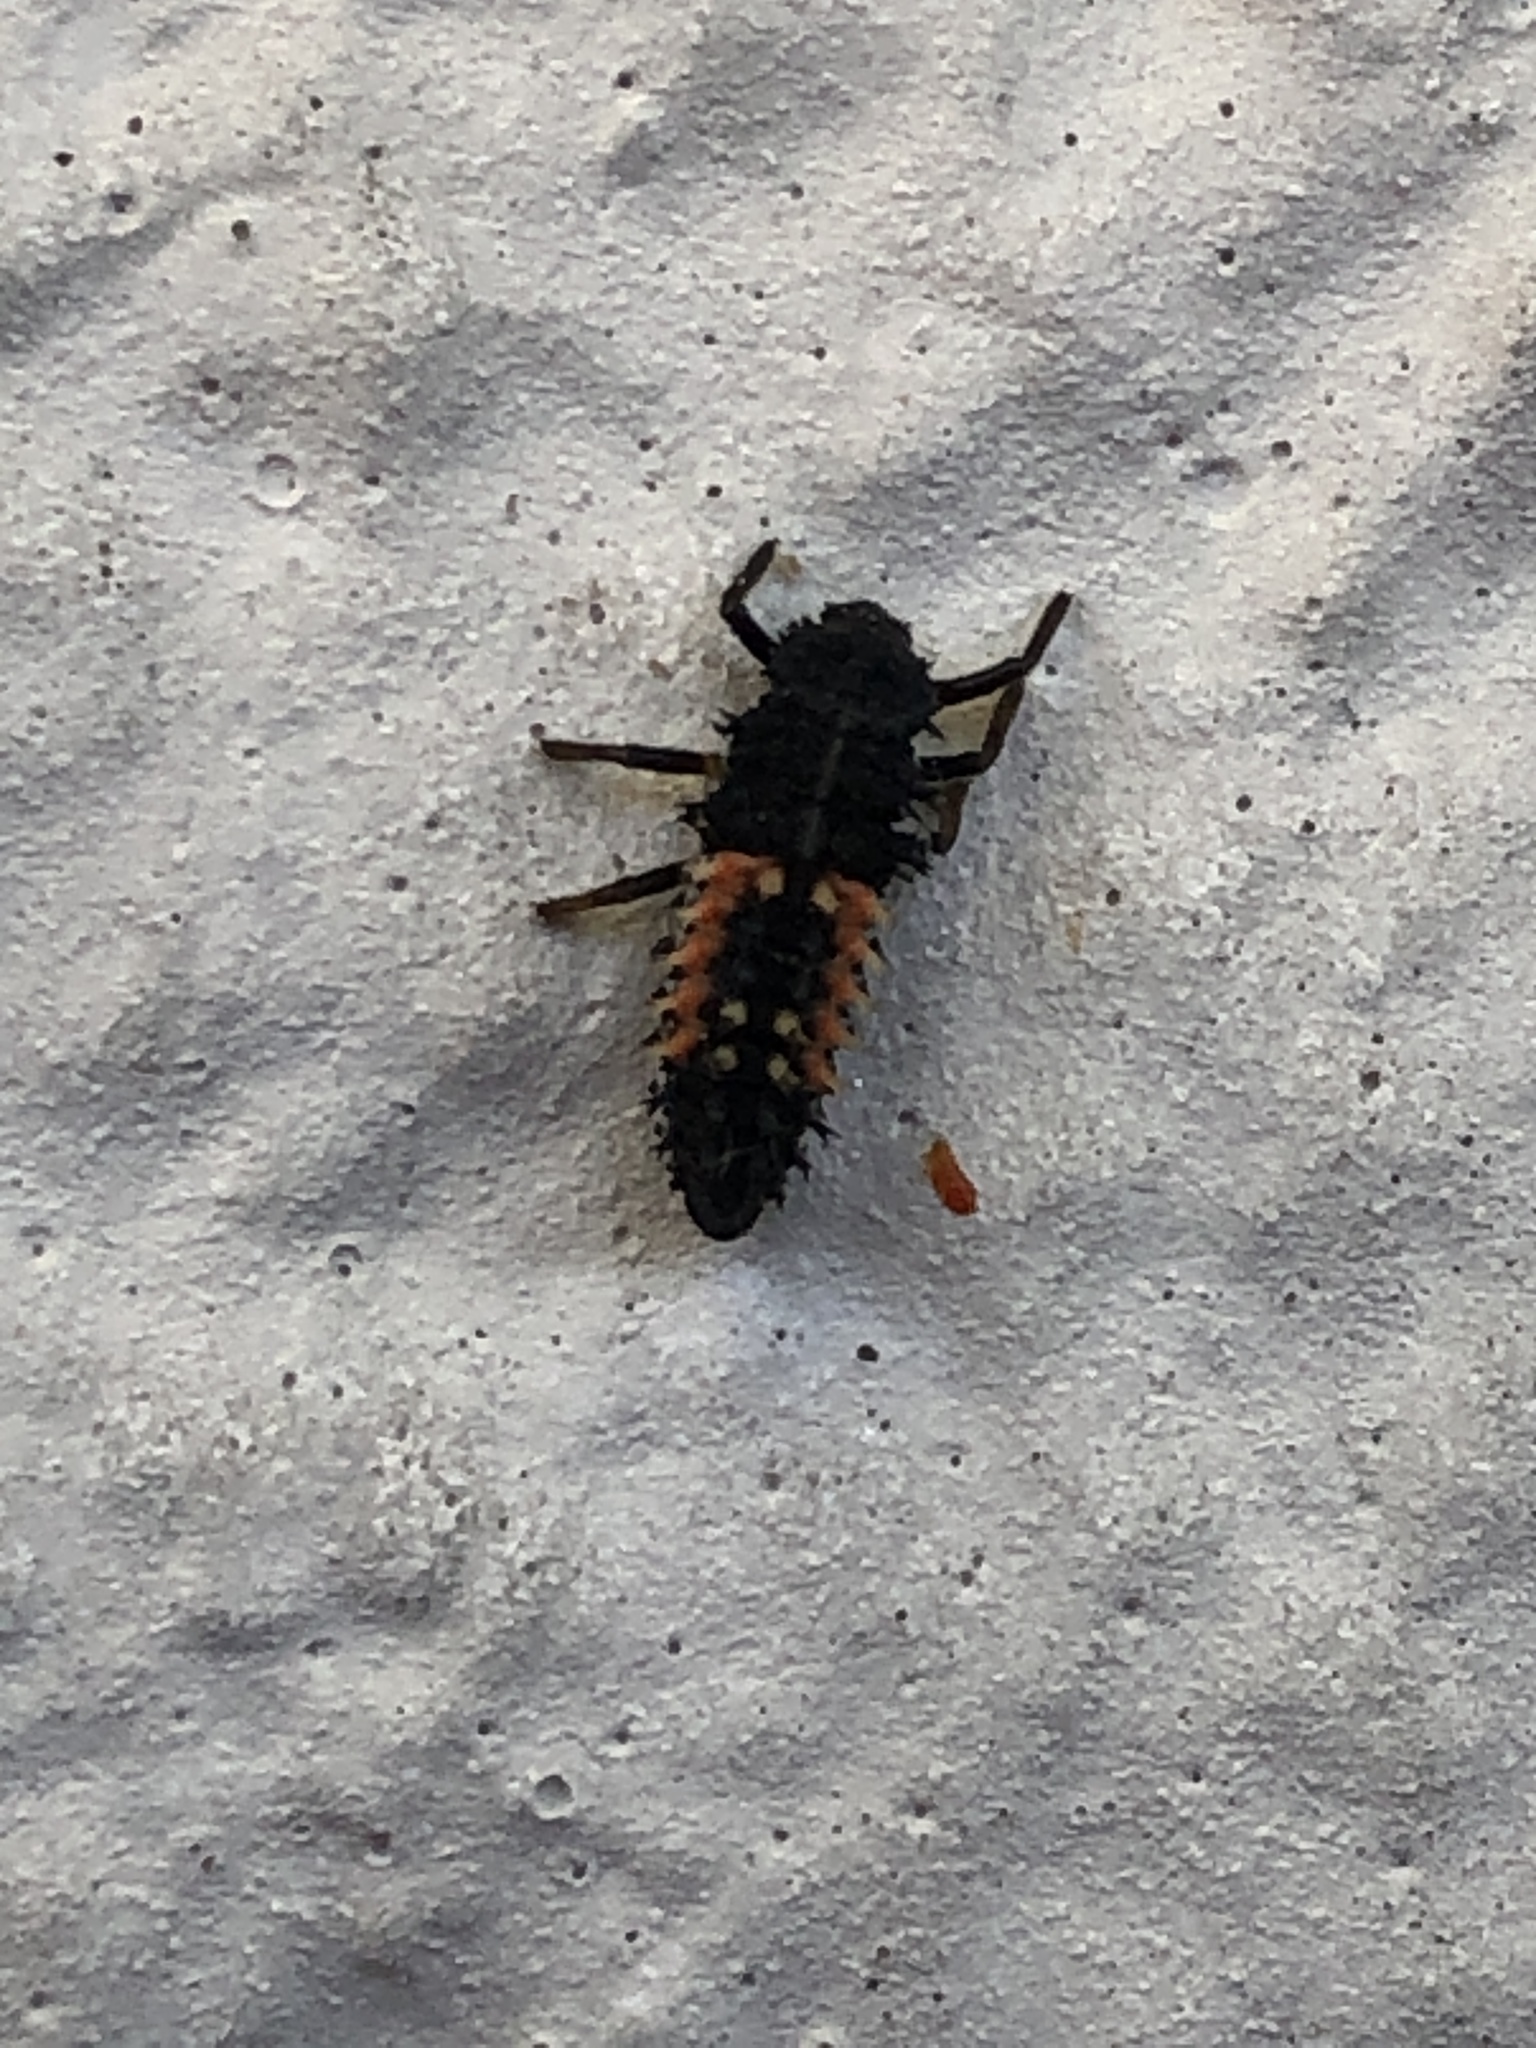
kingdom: Animalia
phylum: Arthropoda
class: Insecta
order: Coleoptera
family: Coccinellidae
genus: Harmonia
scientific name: Harmonia axyridis
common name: Harlequin ladybird
